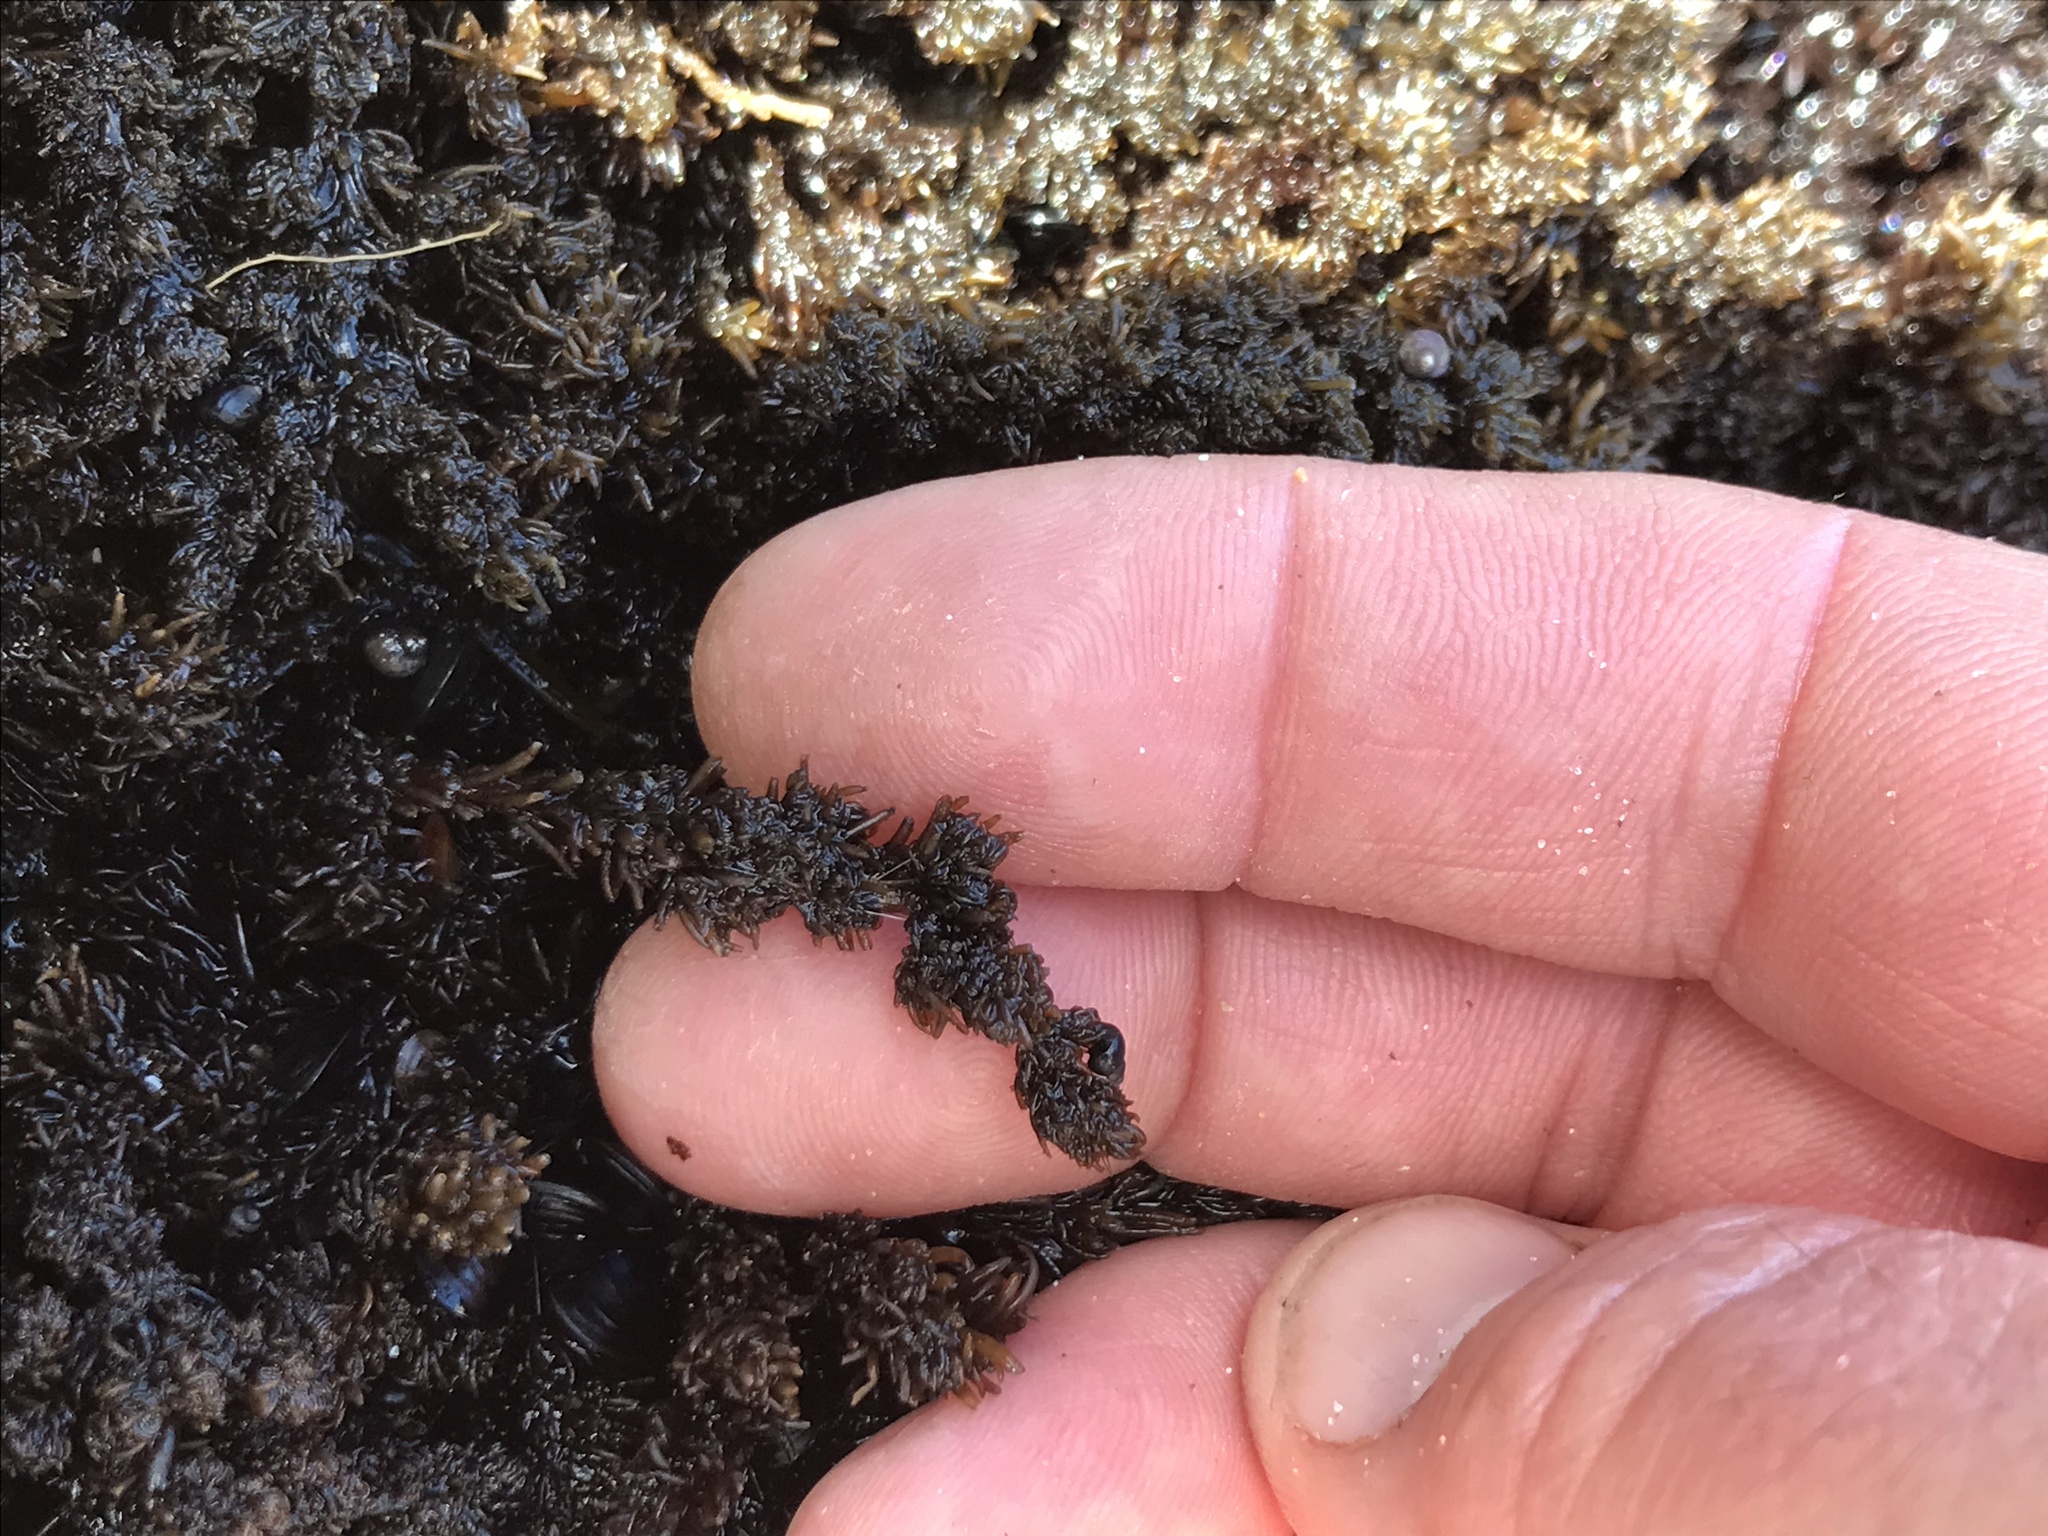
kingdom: Plantae
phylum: Rhodophyta
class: Florideophyceae
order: Ceramiales
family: Rhodomelaceae
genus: Neorhodomela
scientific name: Neorhodomela larix
